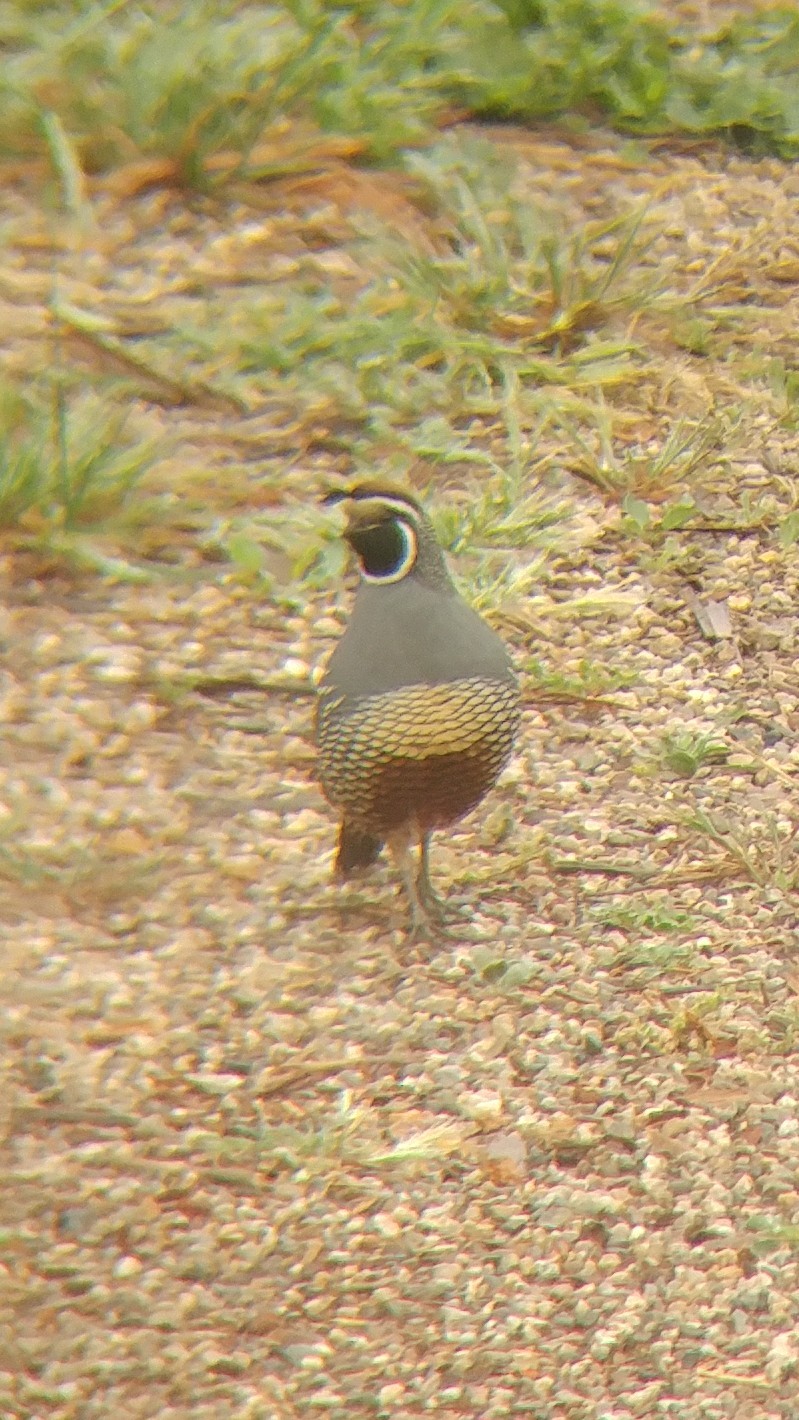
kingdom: Animalia
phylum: Chordata
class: Aves
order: Galliformes
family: Odontophoridae
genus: Callipepla
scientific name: Callipepla californica
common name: California quail
